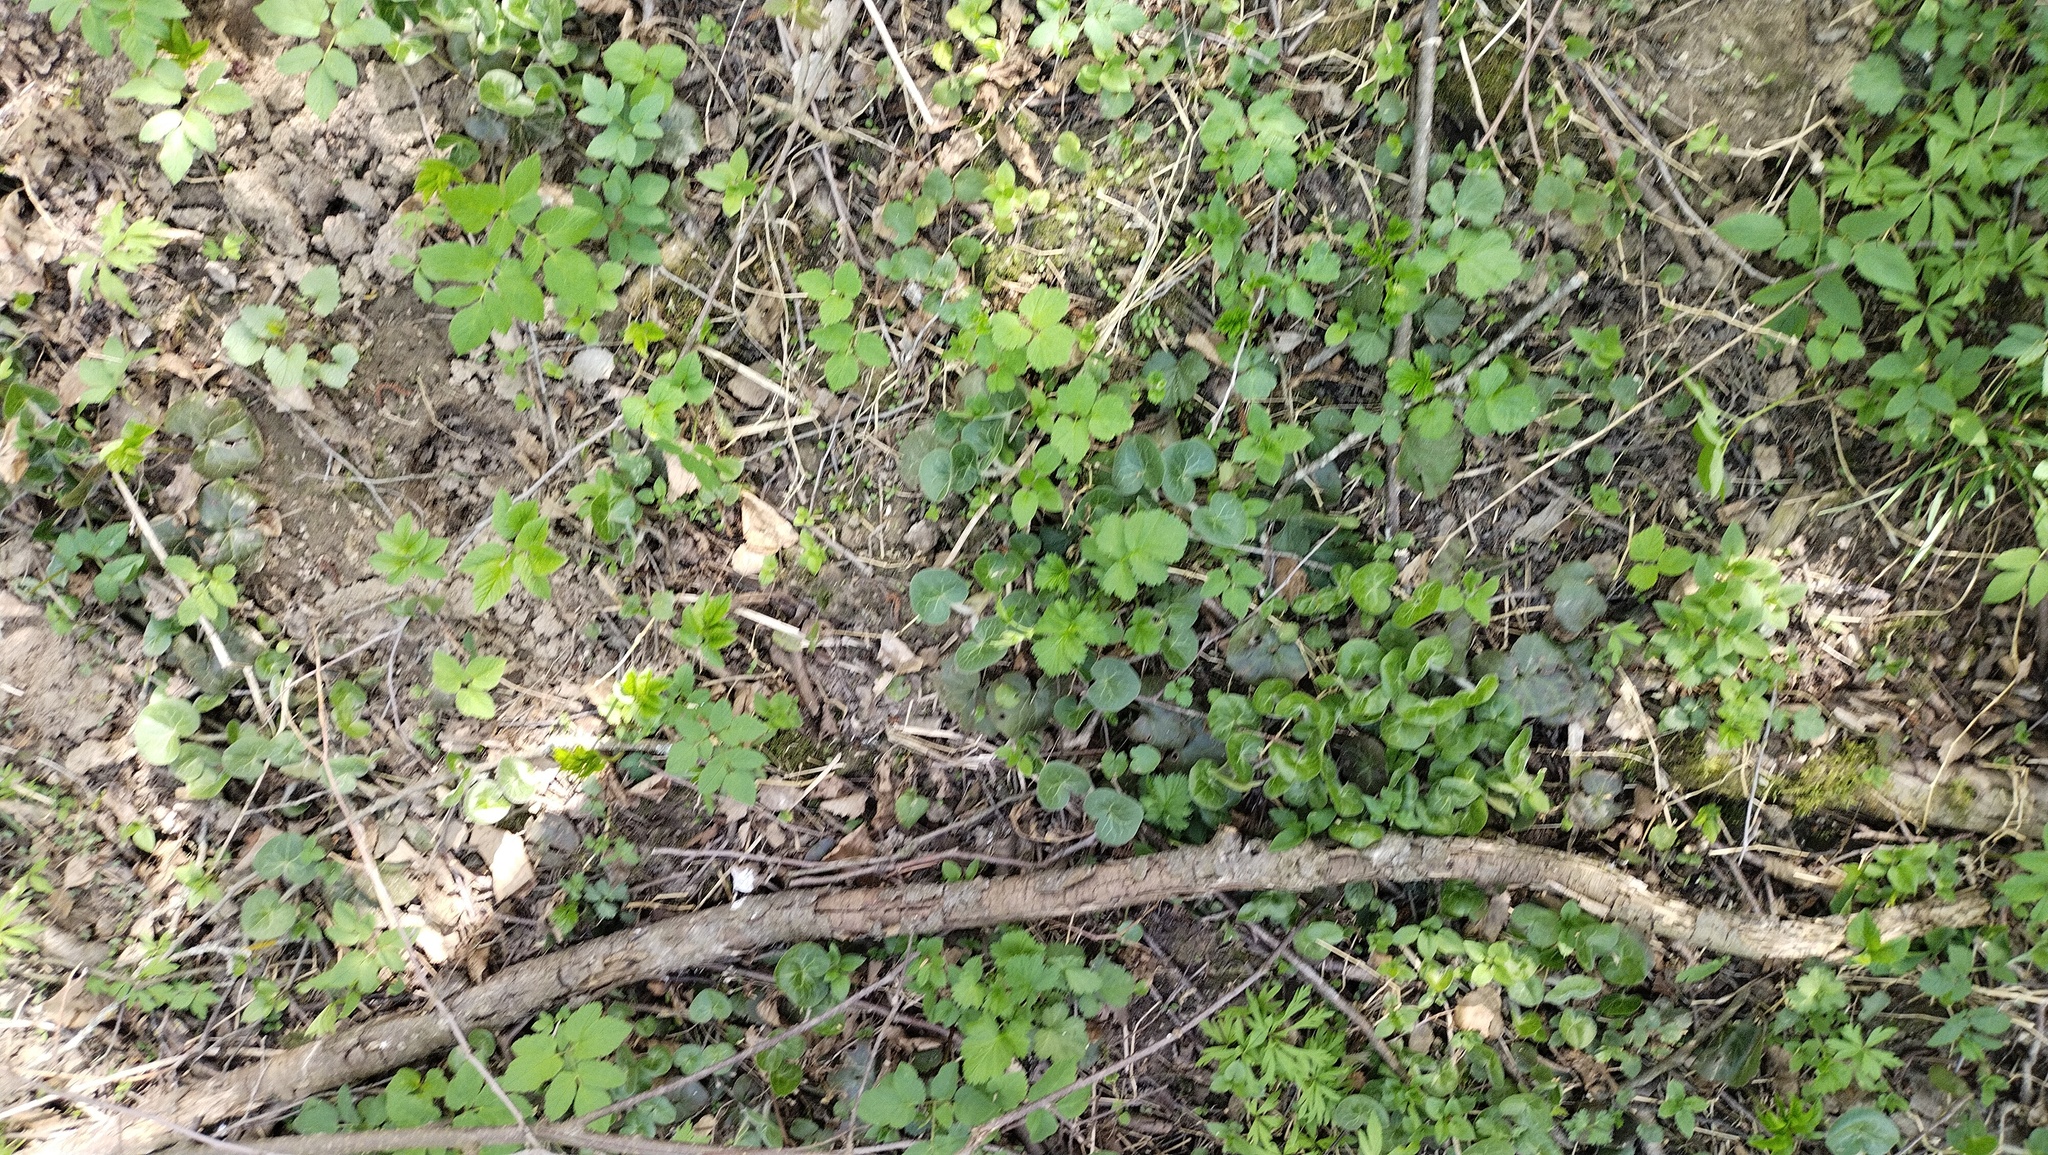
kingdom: Plantae
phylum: Tracheophyta
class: Magnoliopsida
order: Piperales
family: Aristolochiaceae
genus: Asarum
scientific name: Asarum europaeum
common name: Asarabacca
